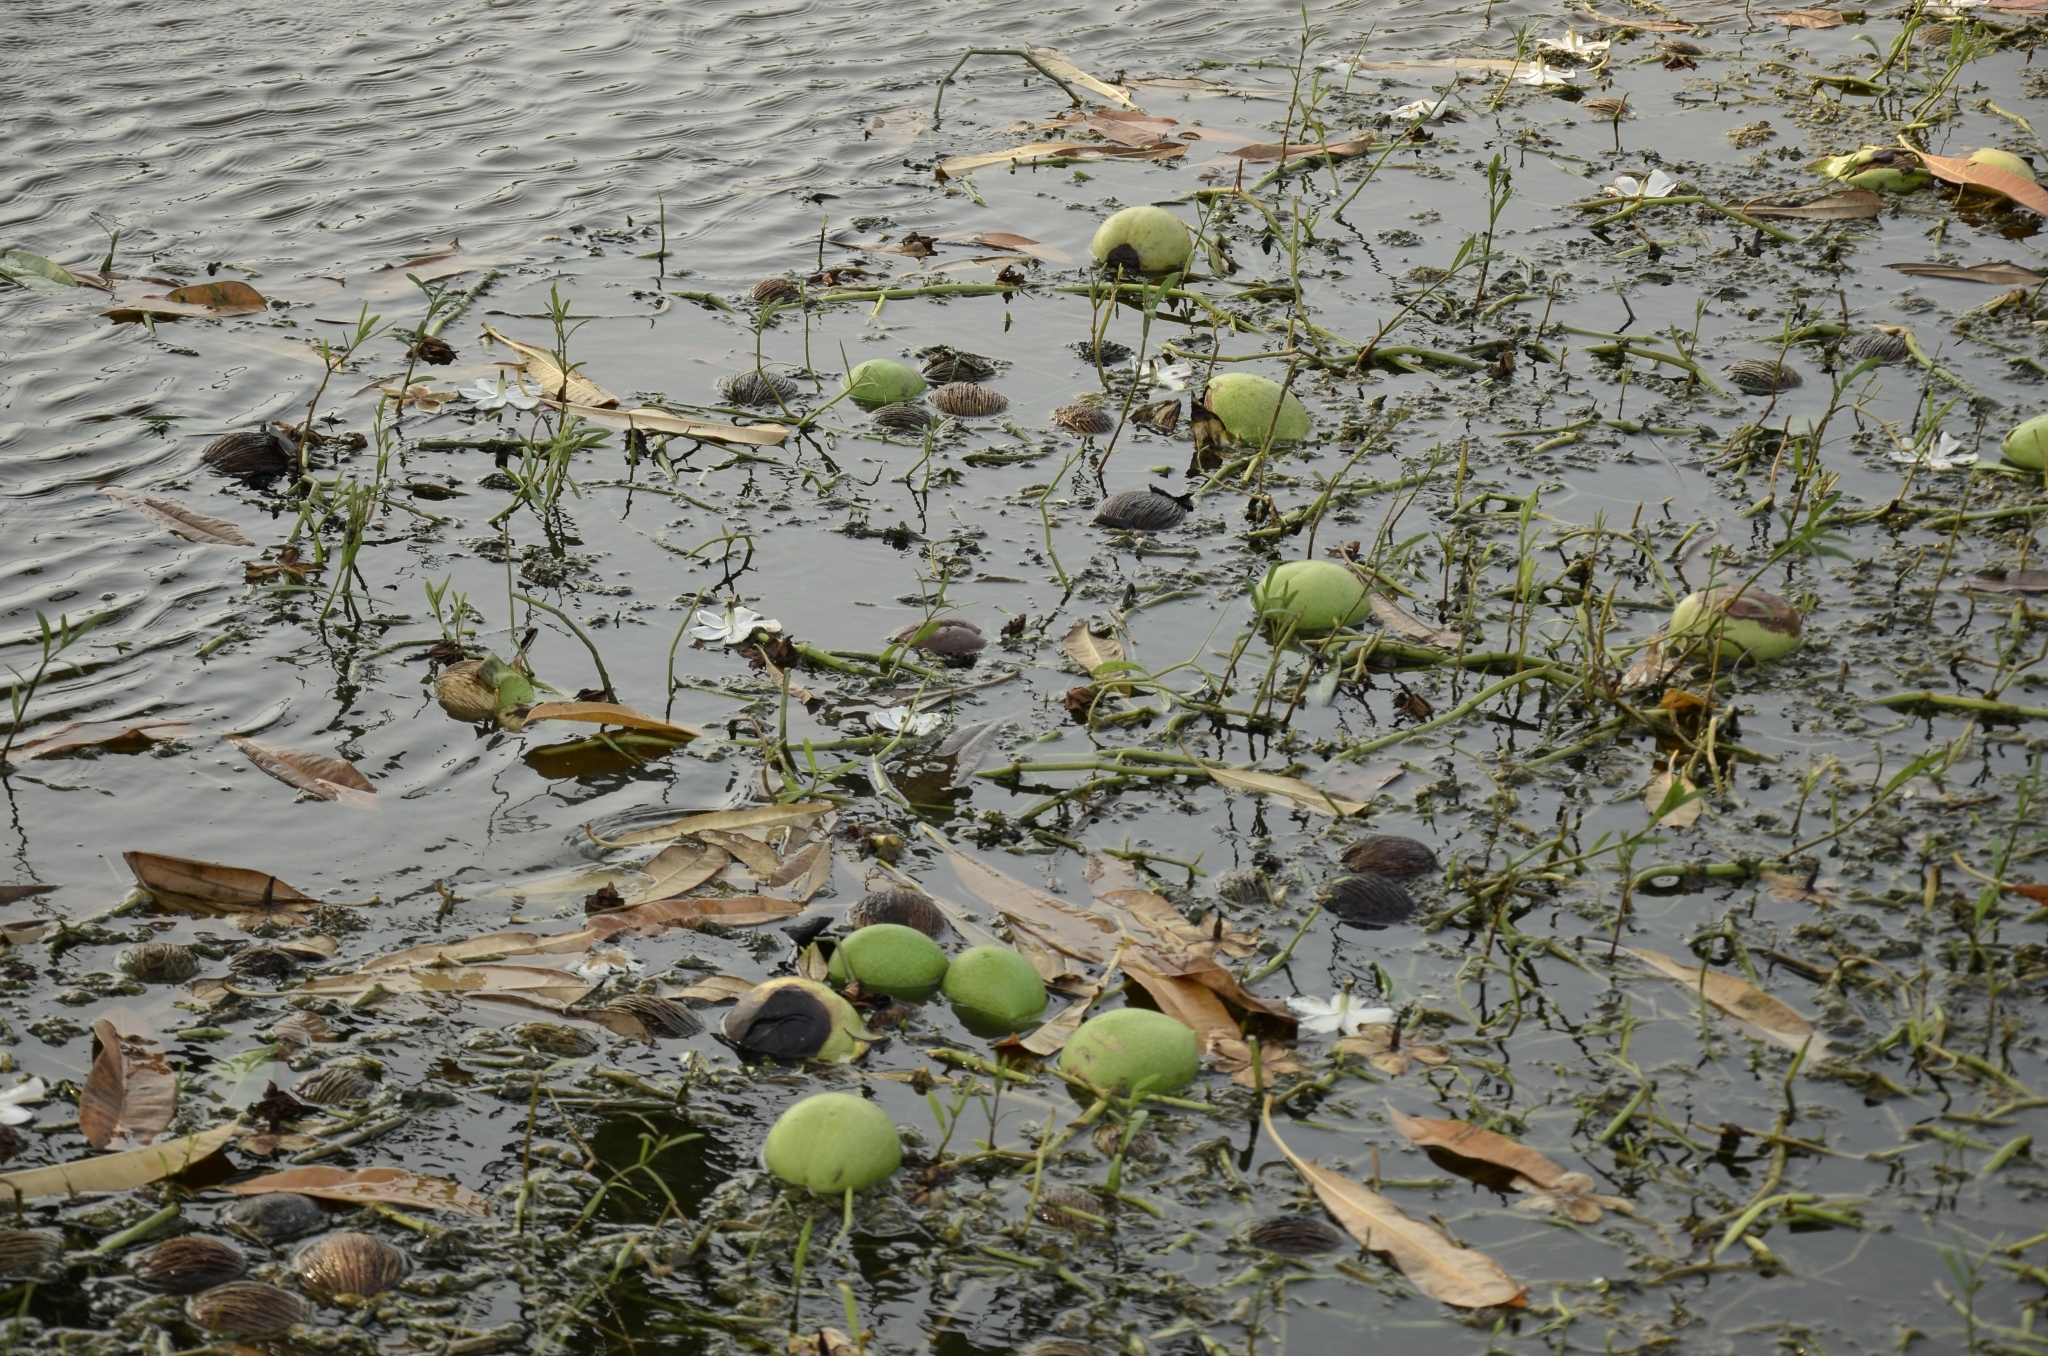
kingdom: Plantae
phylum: Tracheophyta
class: Magnoliopsida
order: Gentianales
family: Apocynaceae
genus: Cerbera
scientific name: Cerbera odollam
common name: Pong-pong
